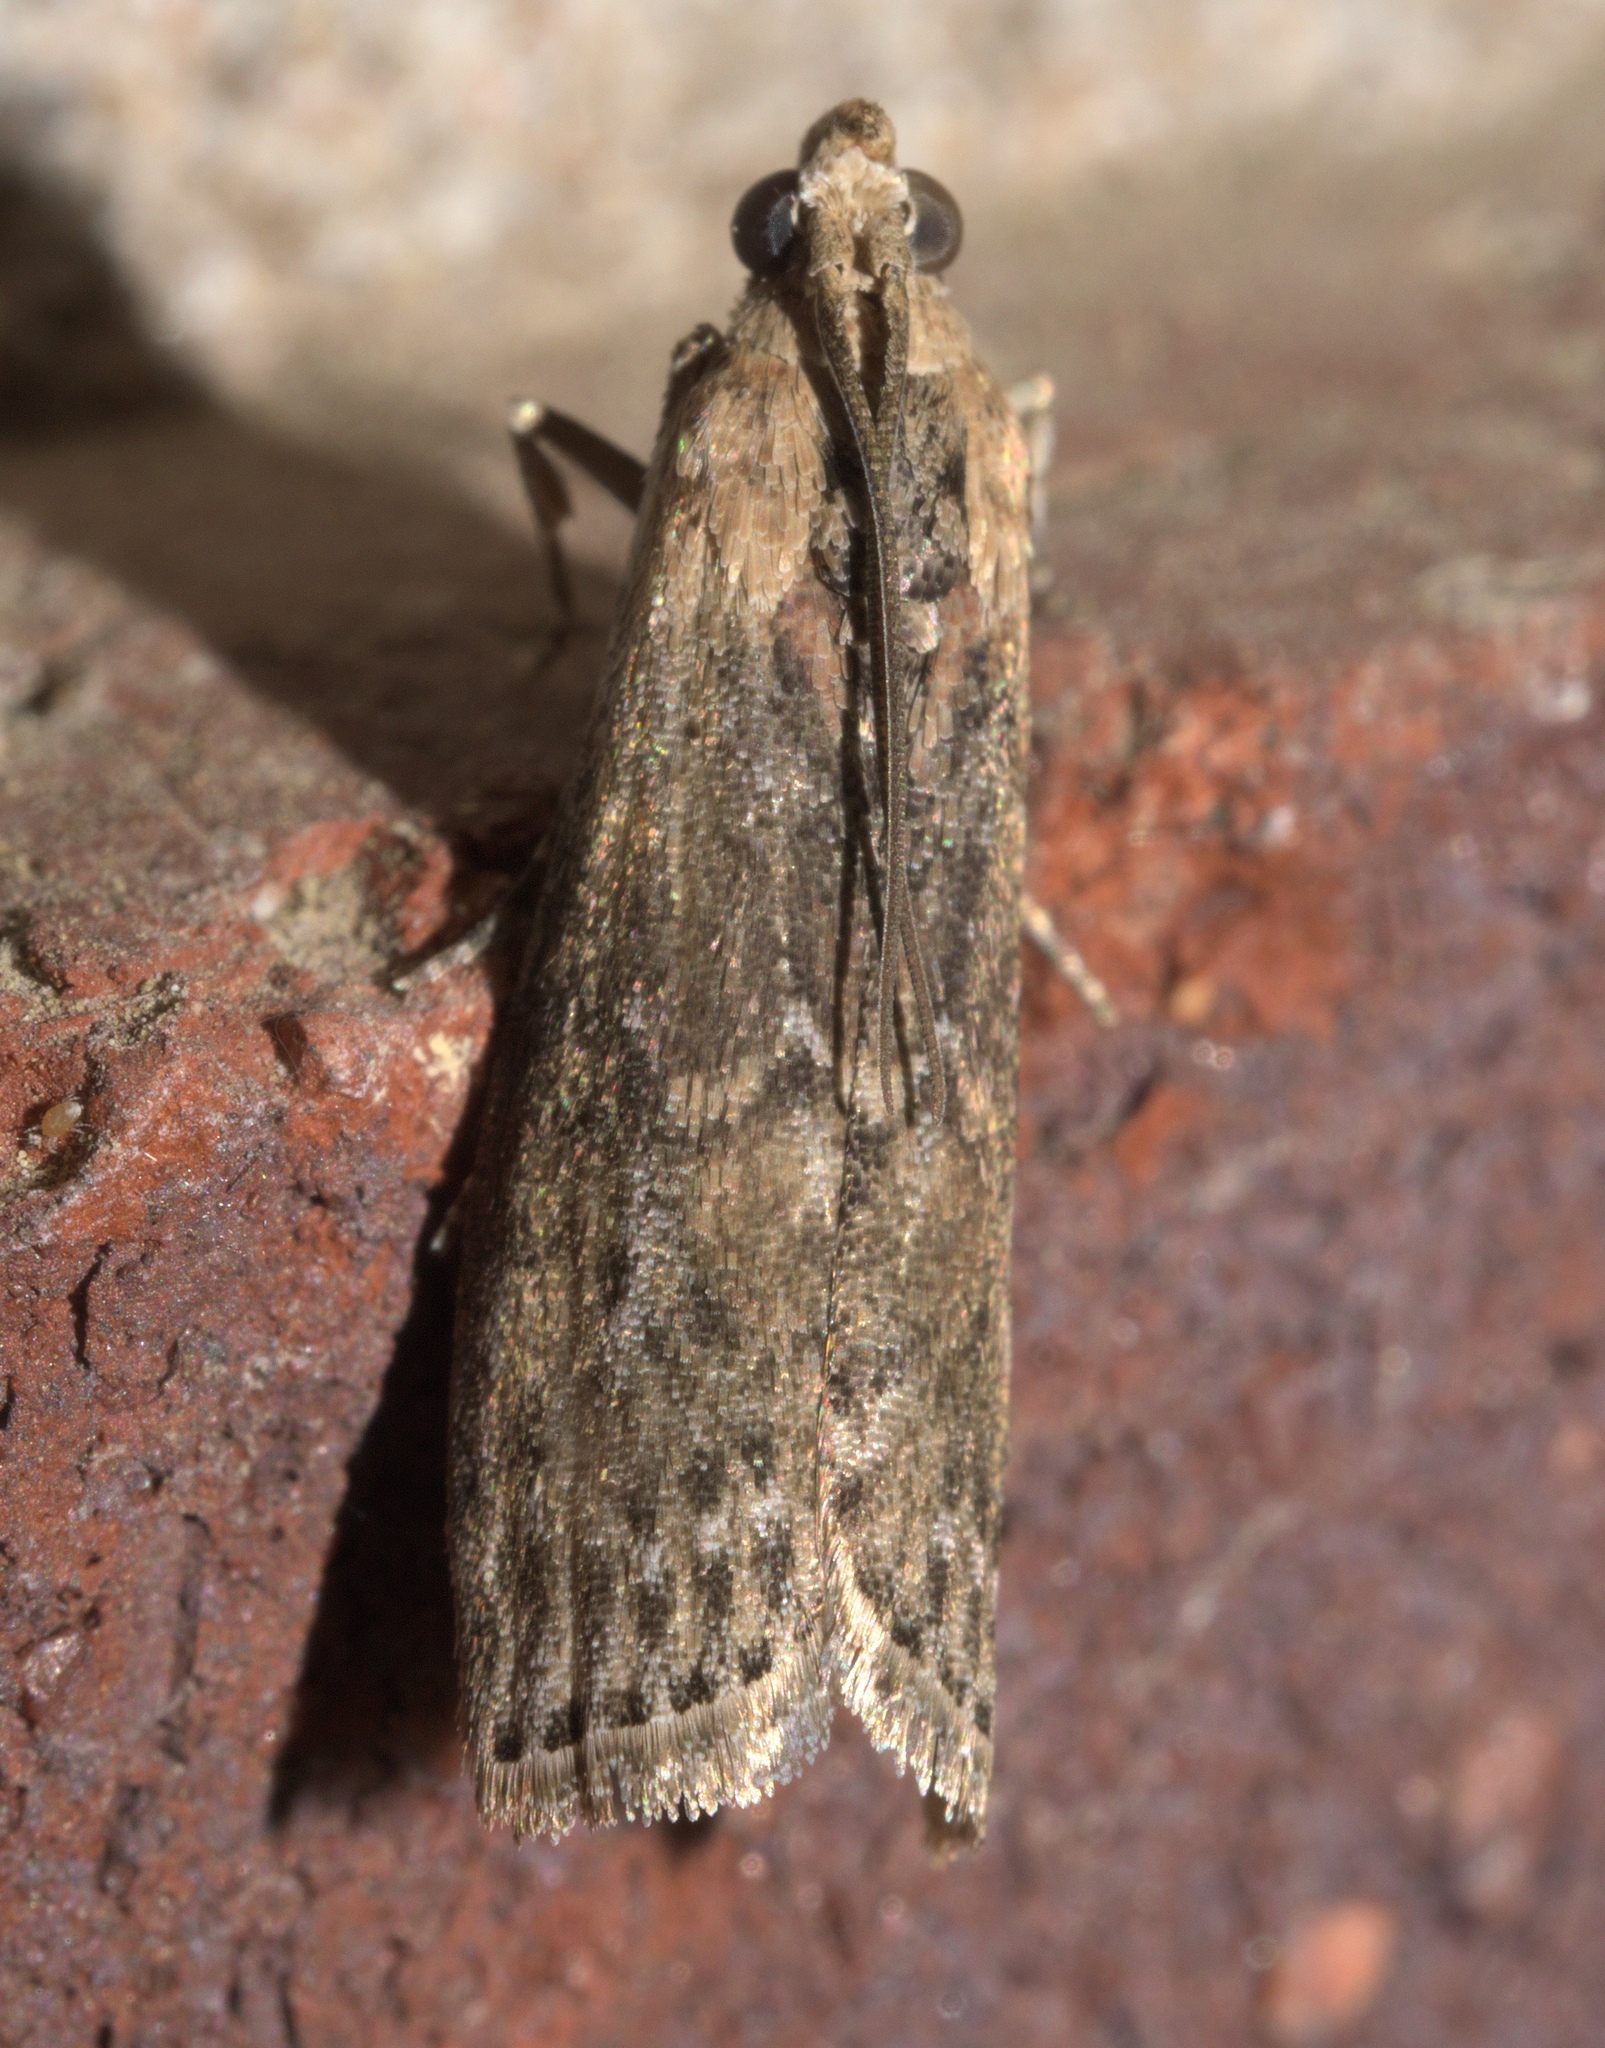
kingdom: Animalia
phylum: Arthropoda
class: Insecta
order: Lepidoptera
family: Pyralidae
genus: Sciota
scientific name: Sciota celtidella
